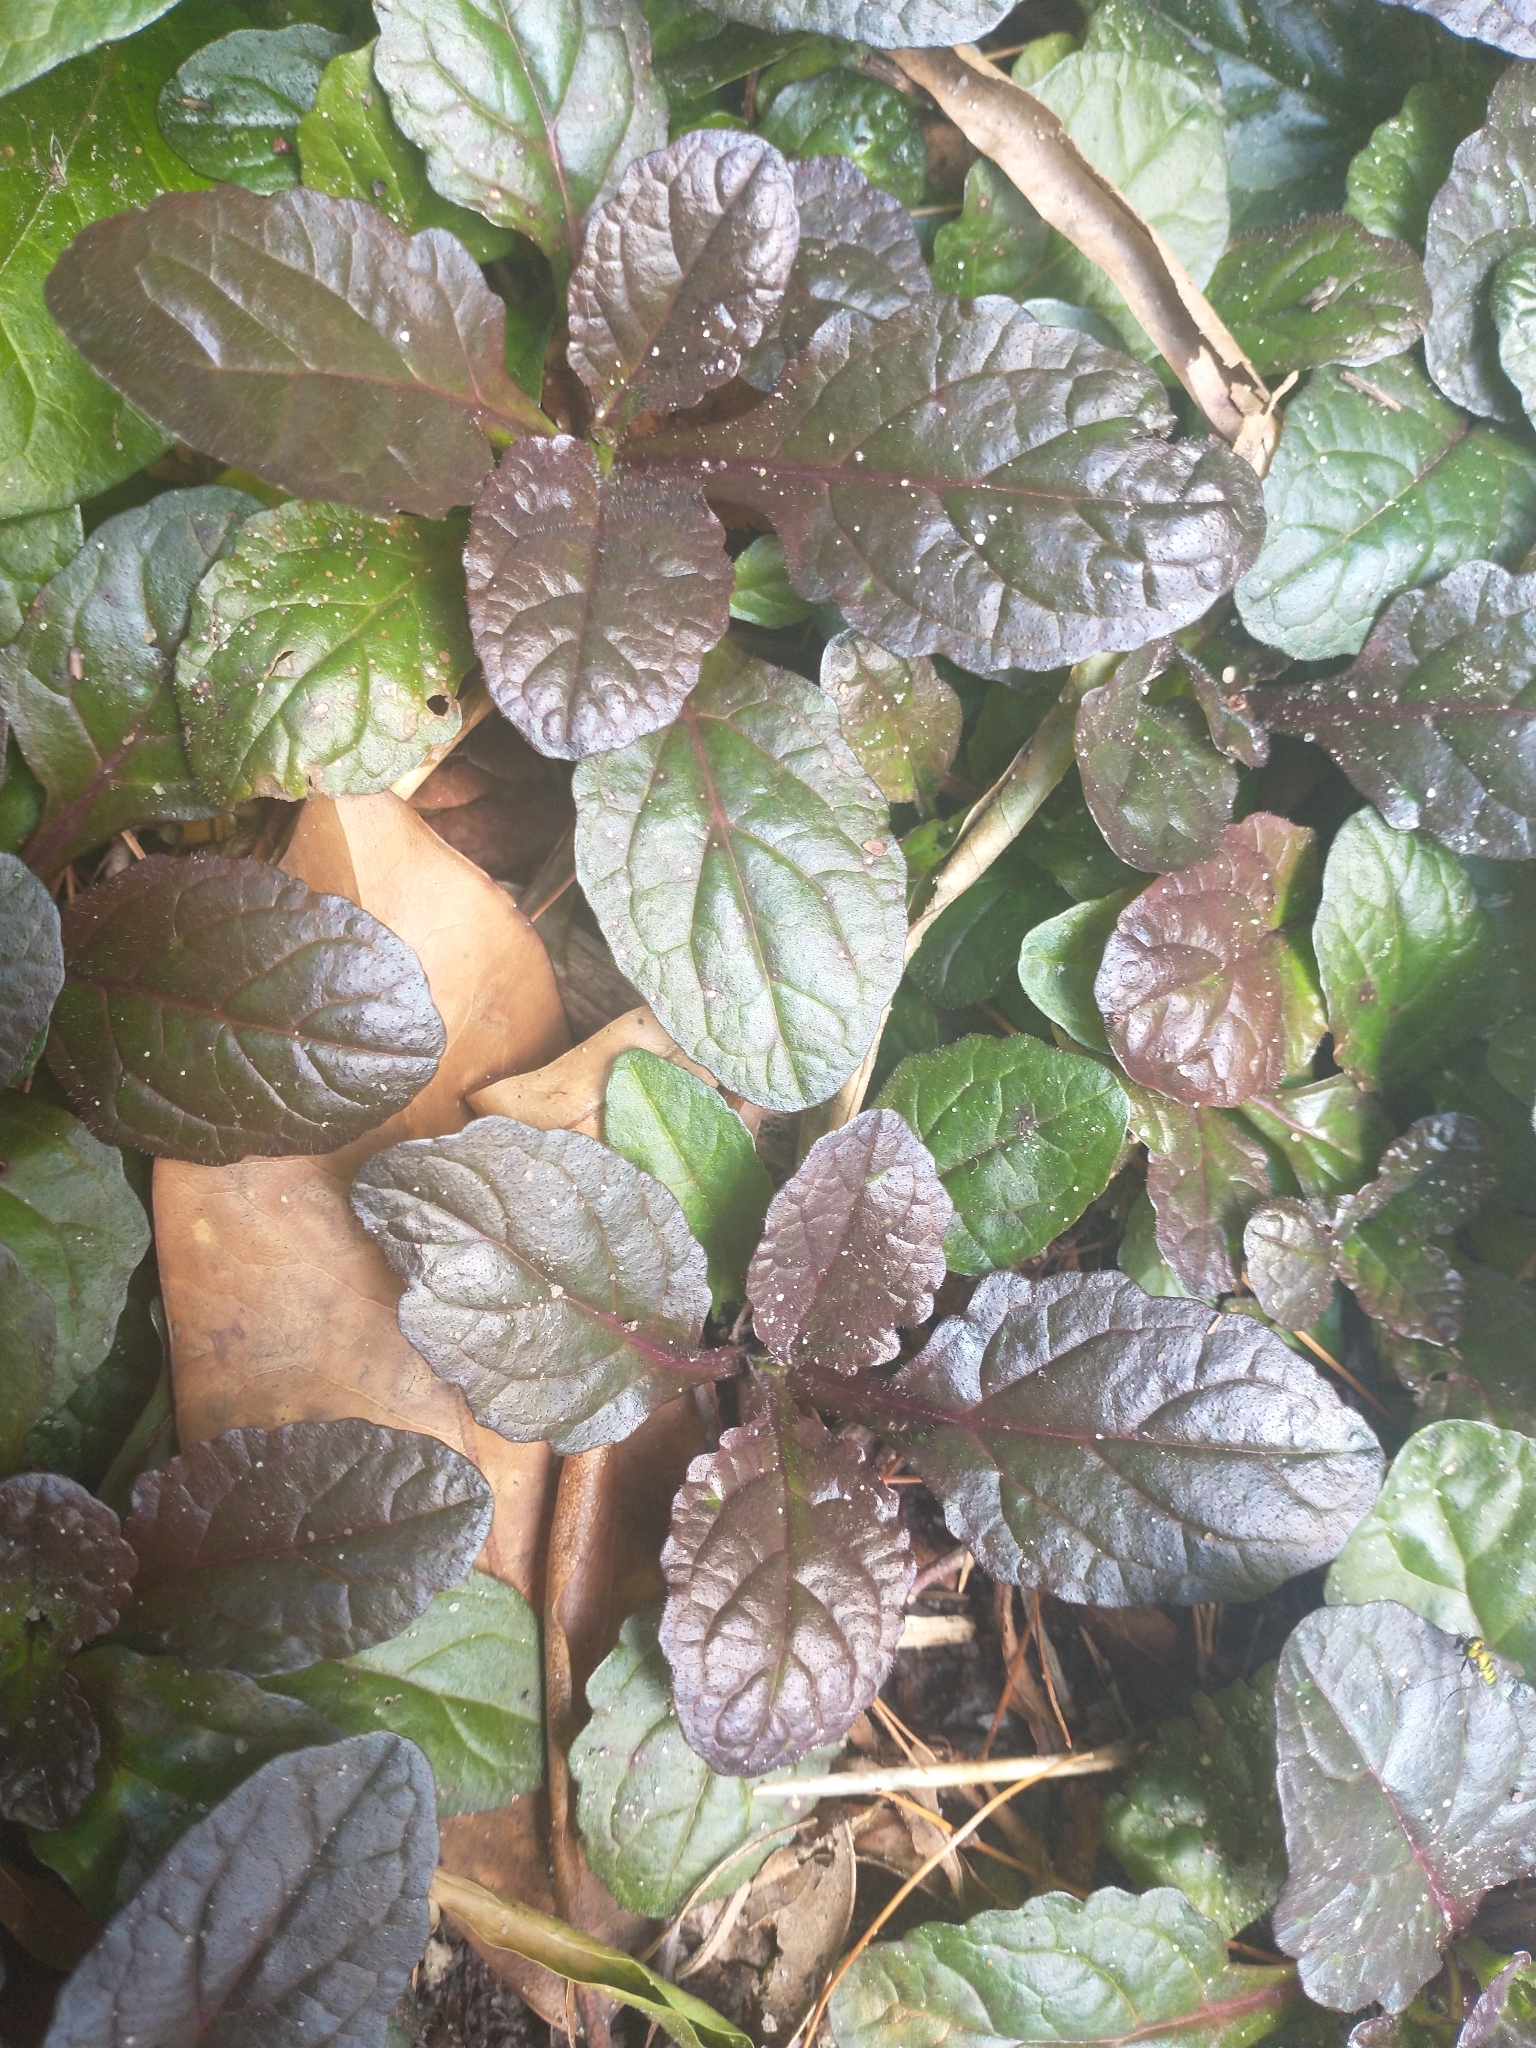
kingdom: Plantae
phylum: Tracheophyta
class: Magnoliopsida
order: Lamiales
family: Lamiaceae
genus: Ajuga
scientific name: Ajuga reptans
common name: Bugle
